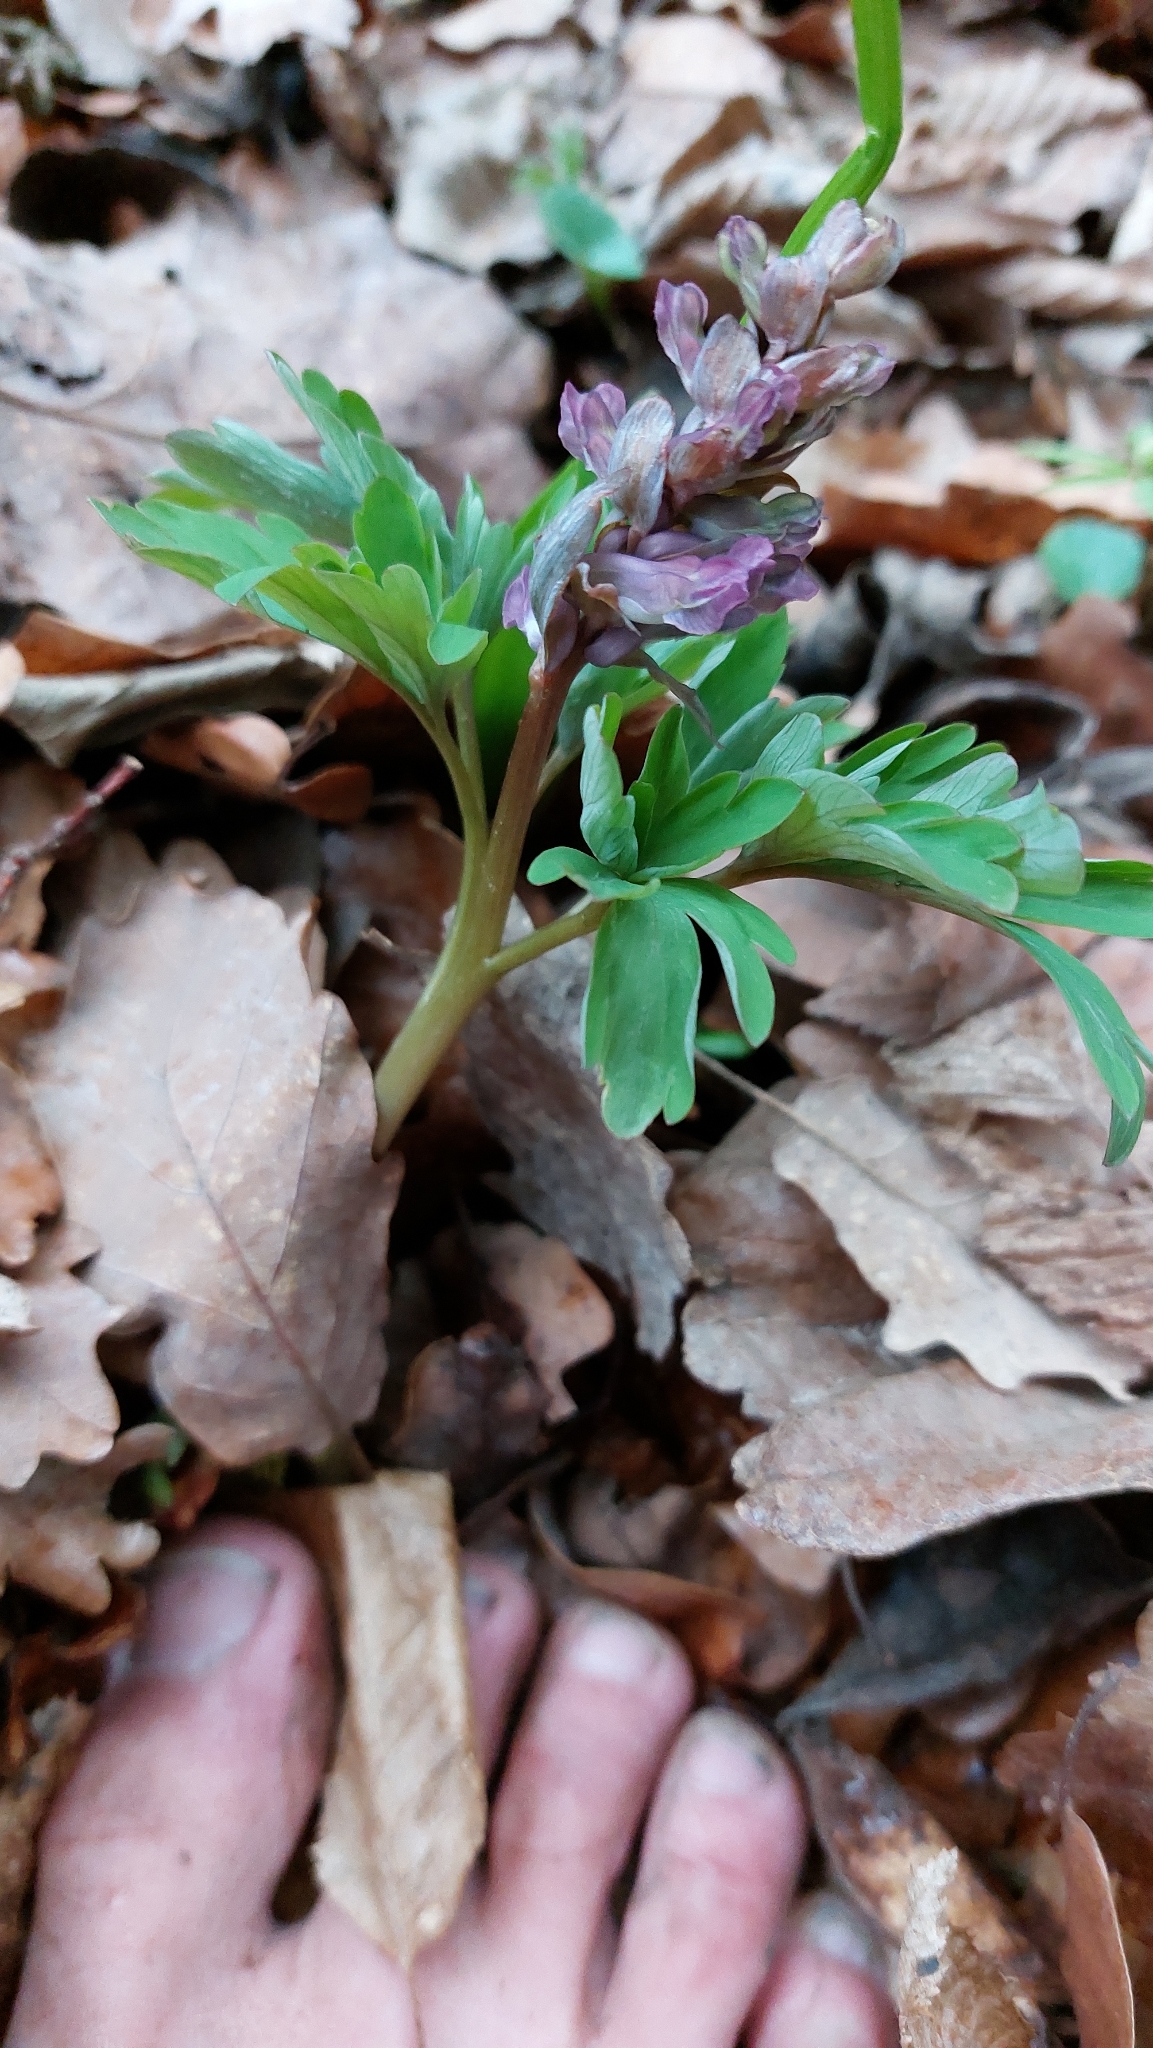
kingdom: Plantae
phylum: Tracheophyta
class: Magnoliopsida
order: Ranunculales
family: Papaveraceae
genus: Corydalis
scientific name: Corydalis cava
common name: Hollowroot
